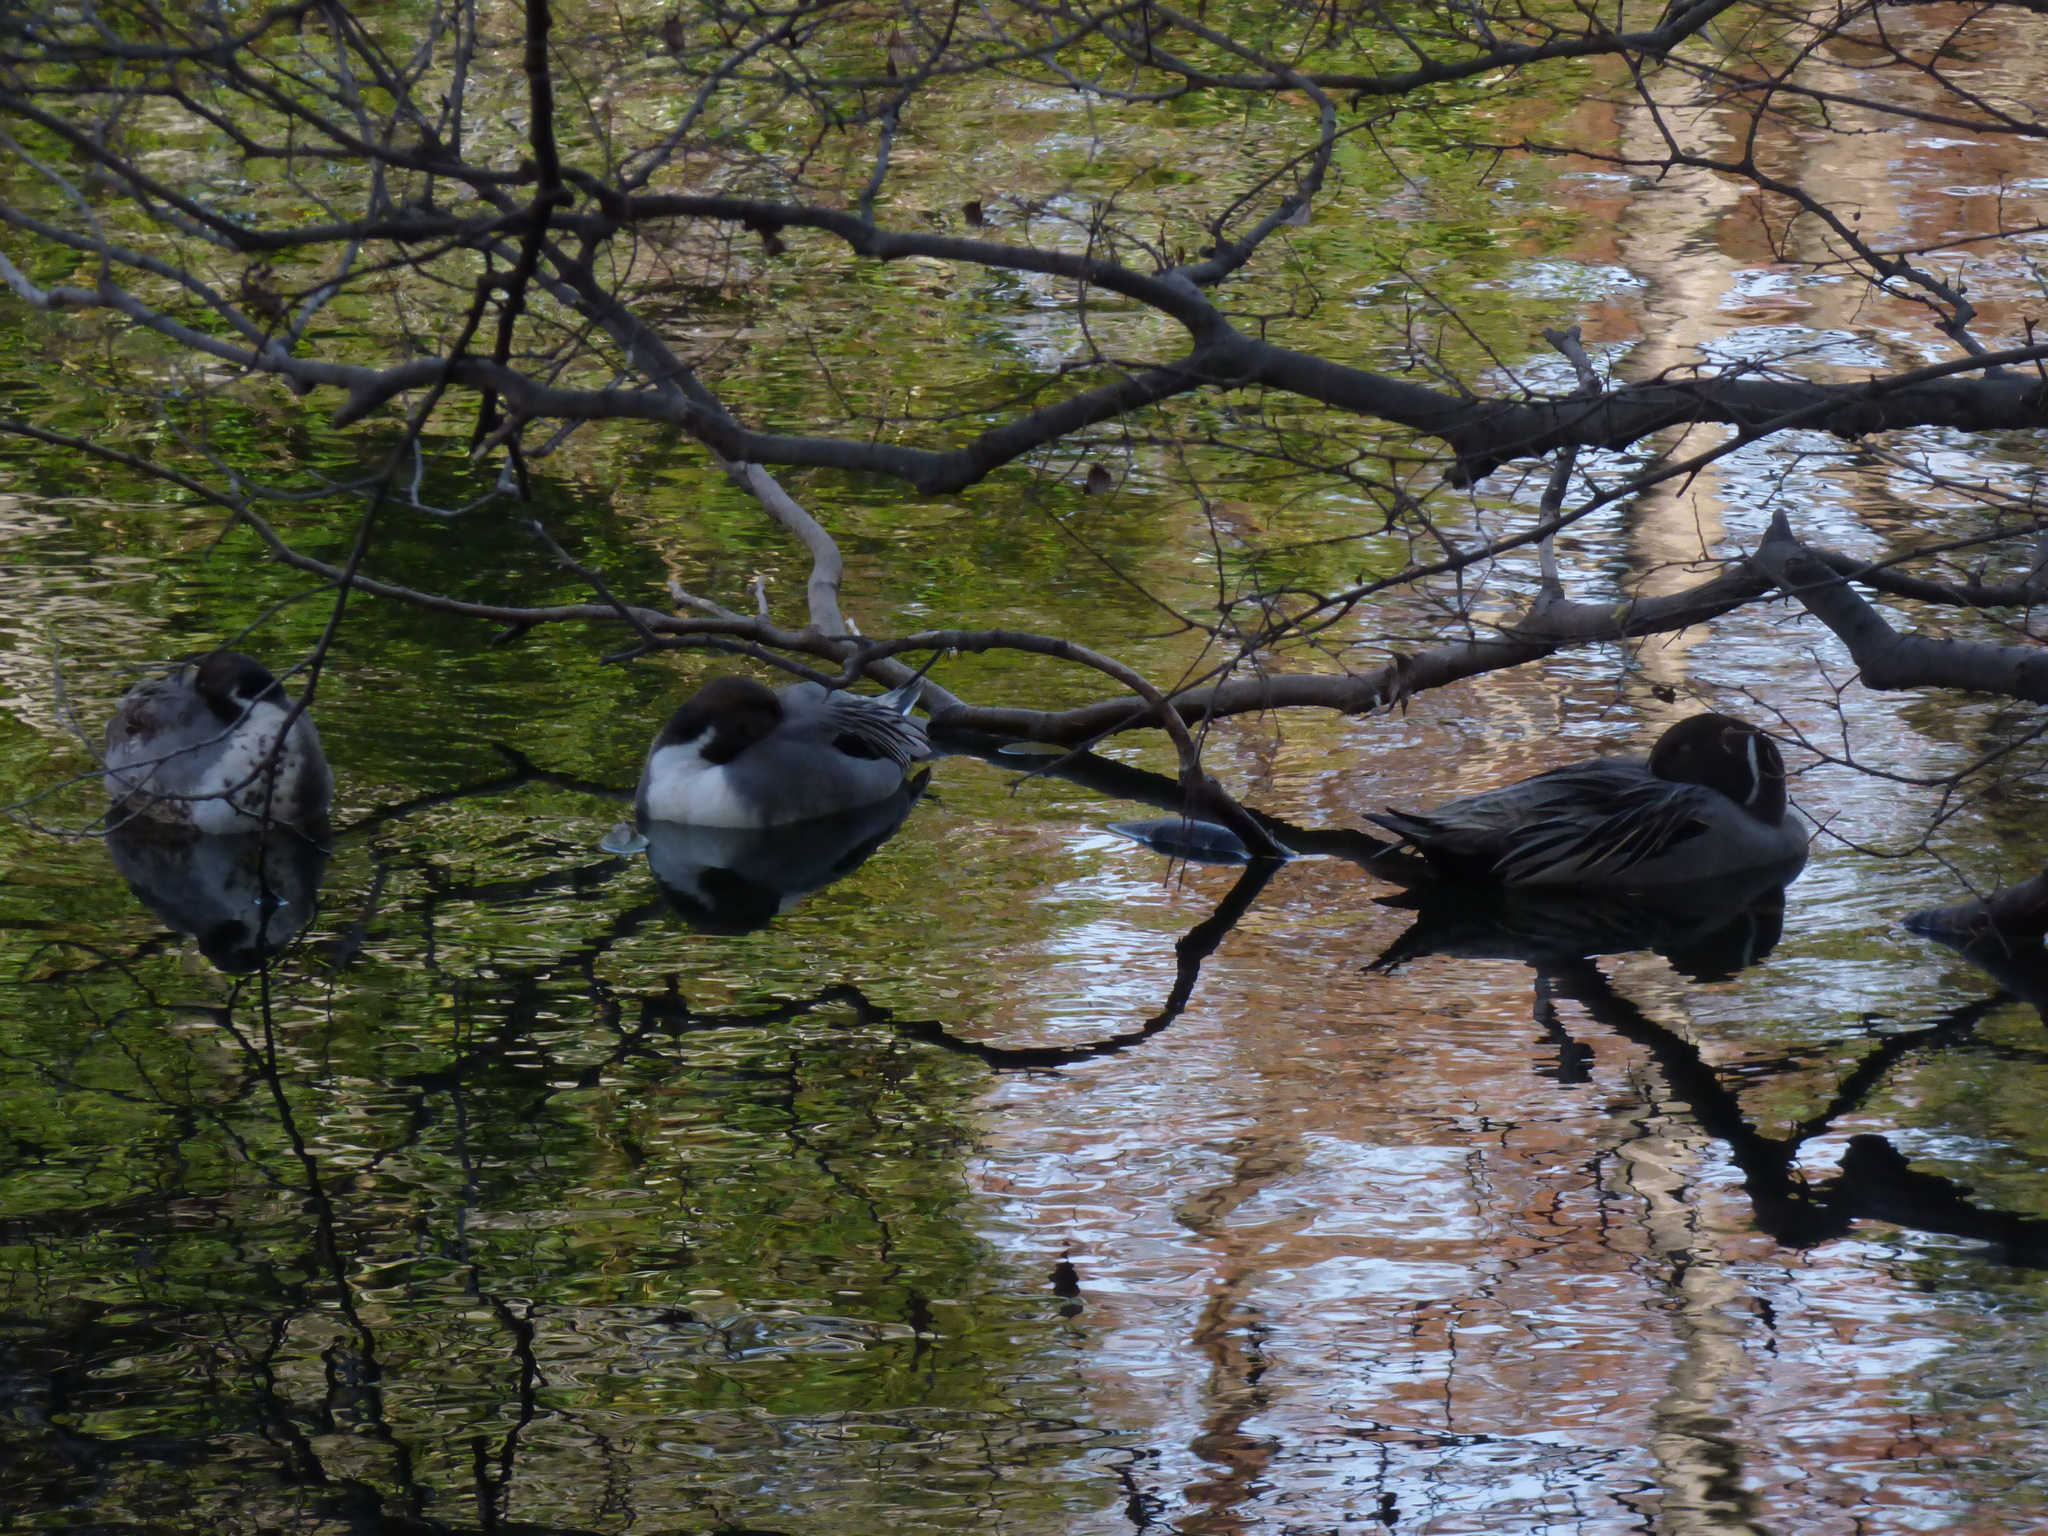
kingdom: Animalia
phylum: Chordata
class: Aves
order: Anseriformes
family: Anatidae
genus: Anas
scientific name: Anas acuta
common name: Northern pintail
